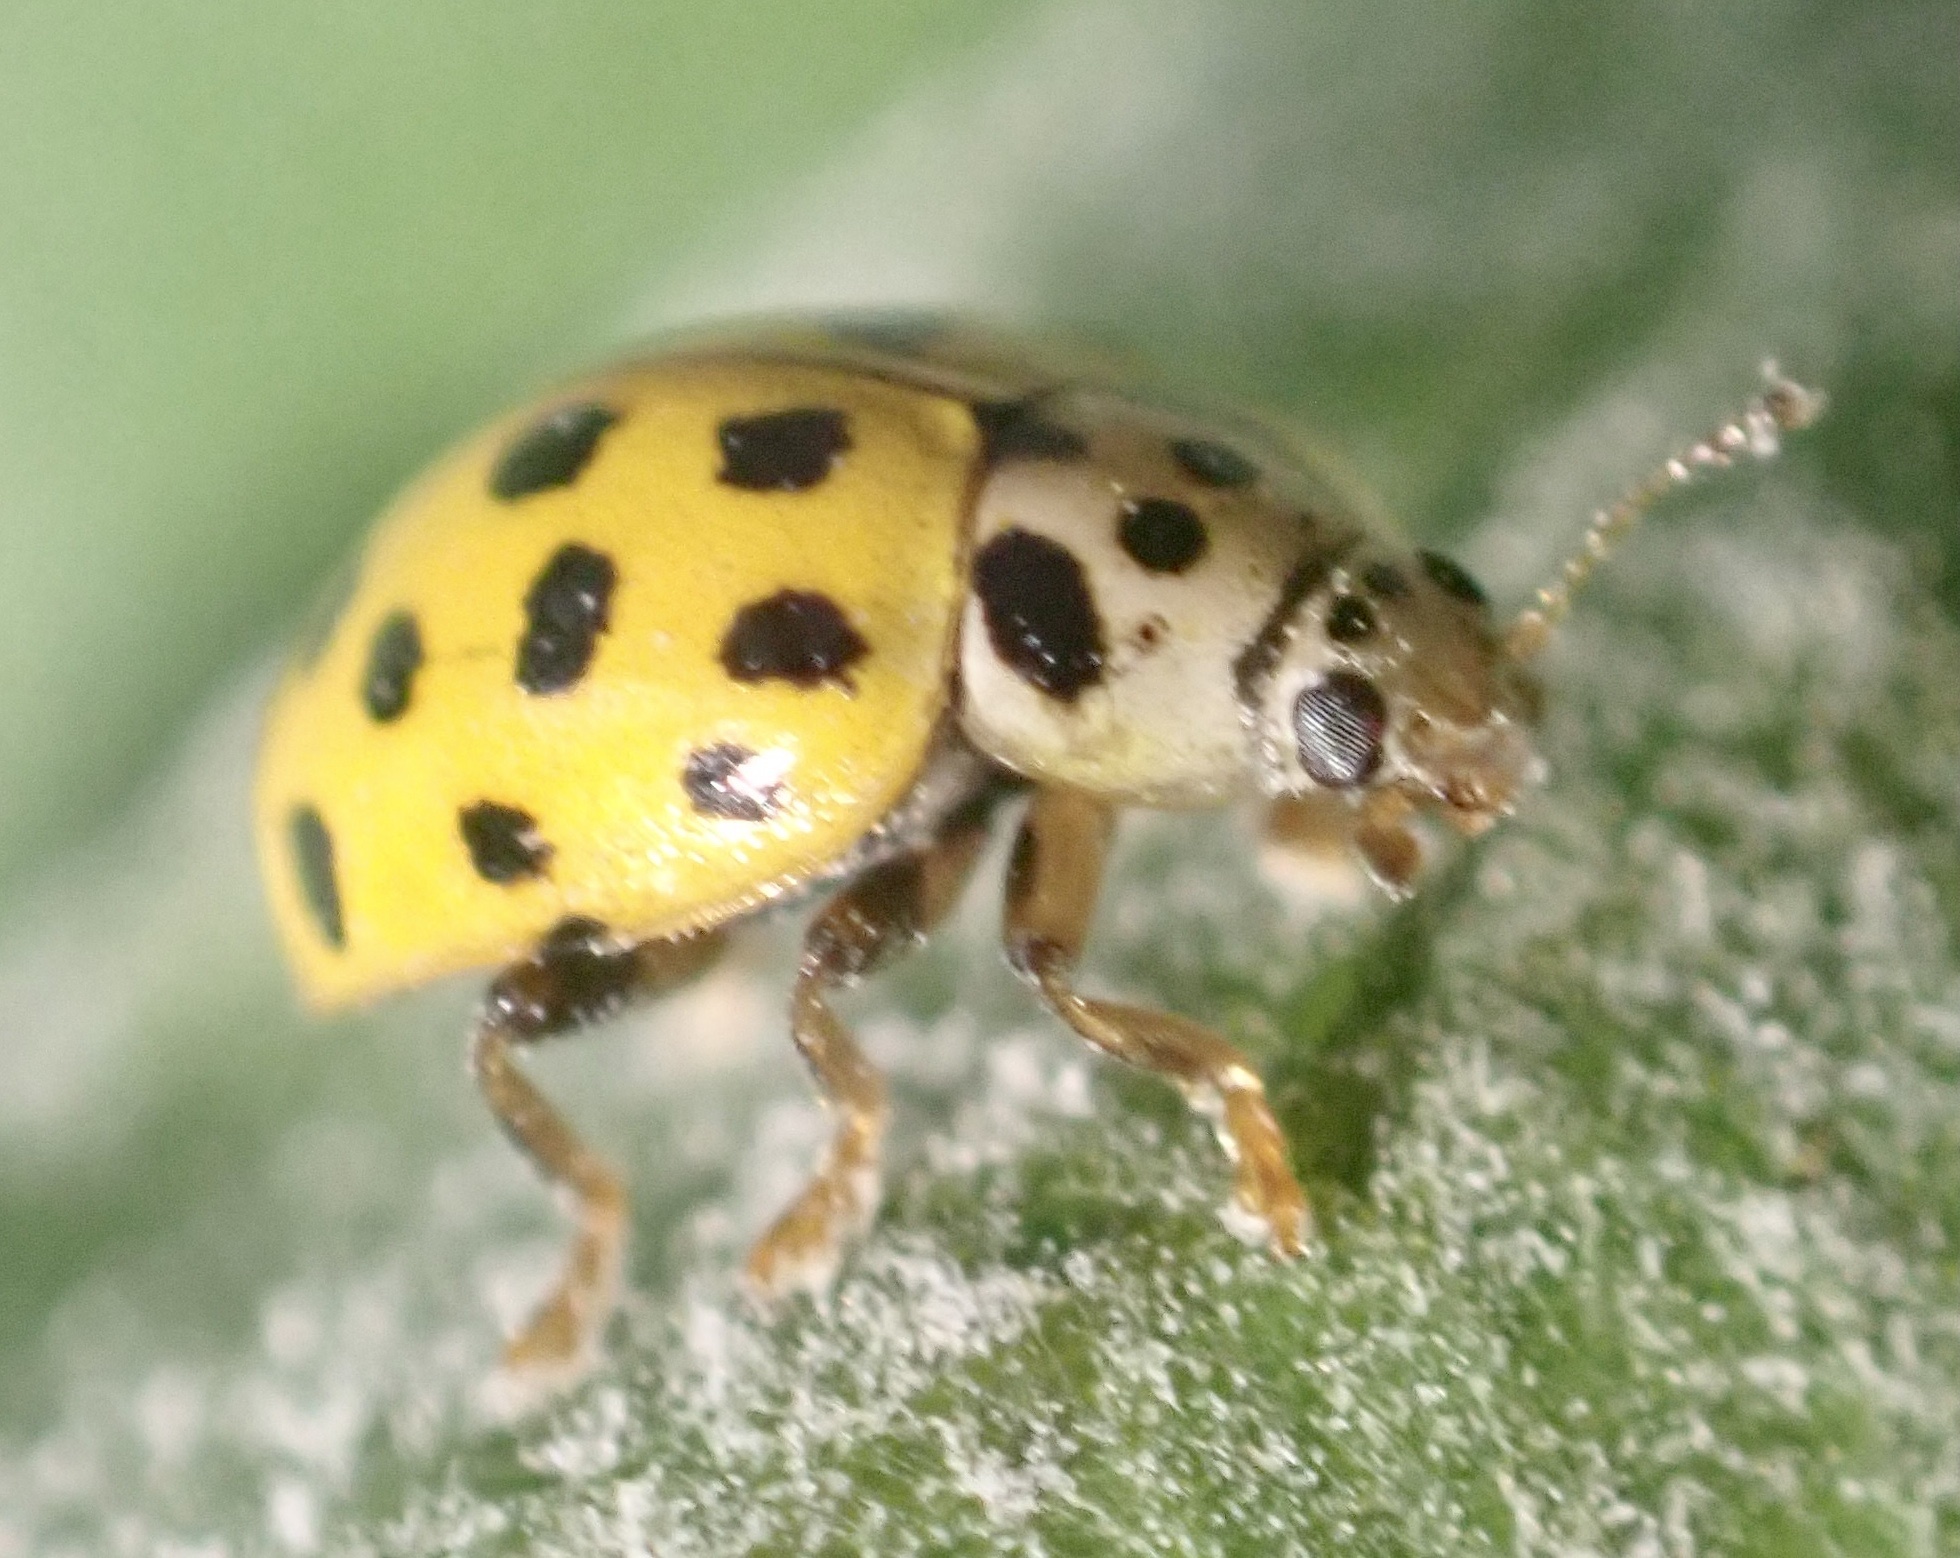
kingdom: Animalia
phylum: Arthropoda
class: Insecta
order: Coleoptera
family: Coccinellidae
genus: Psyllobora
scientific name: Psyllobora vigintiduopunctata
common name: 22-spot ladybird
